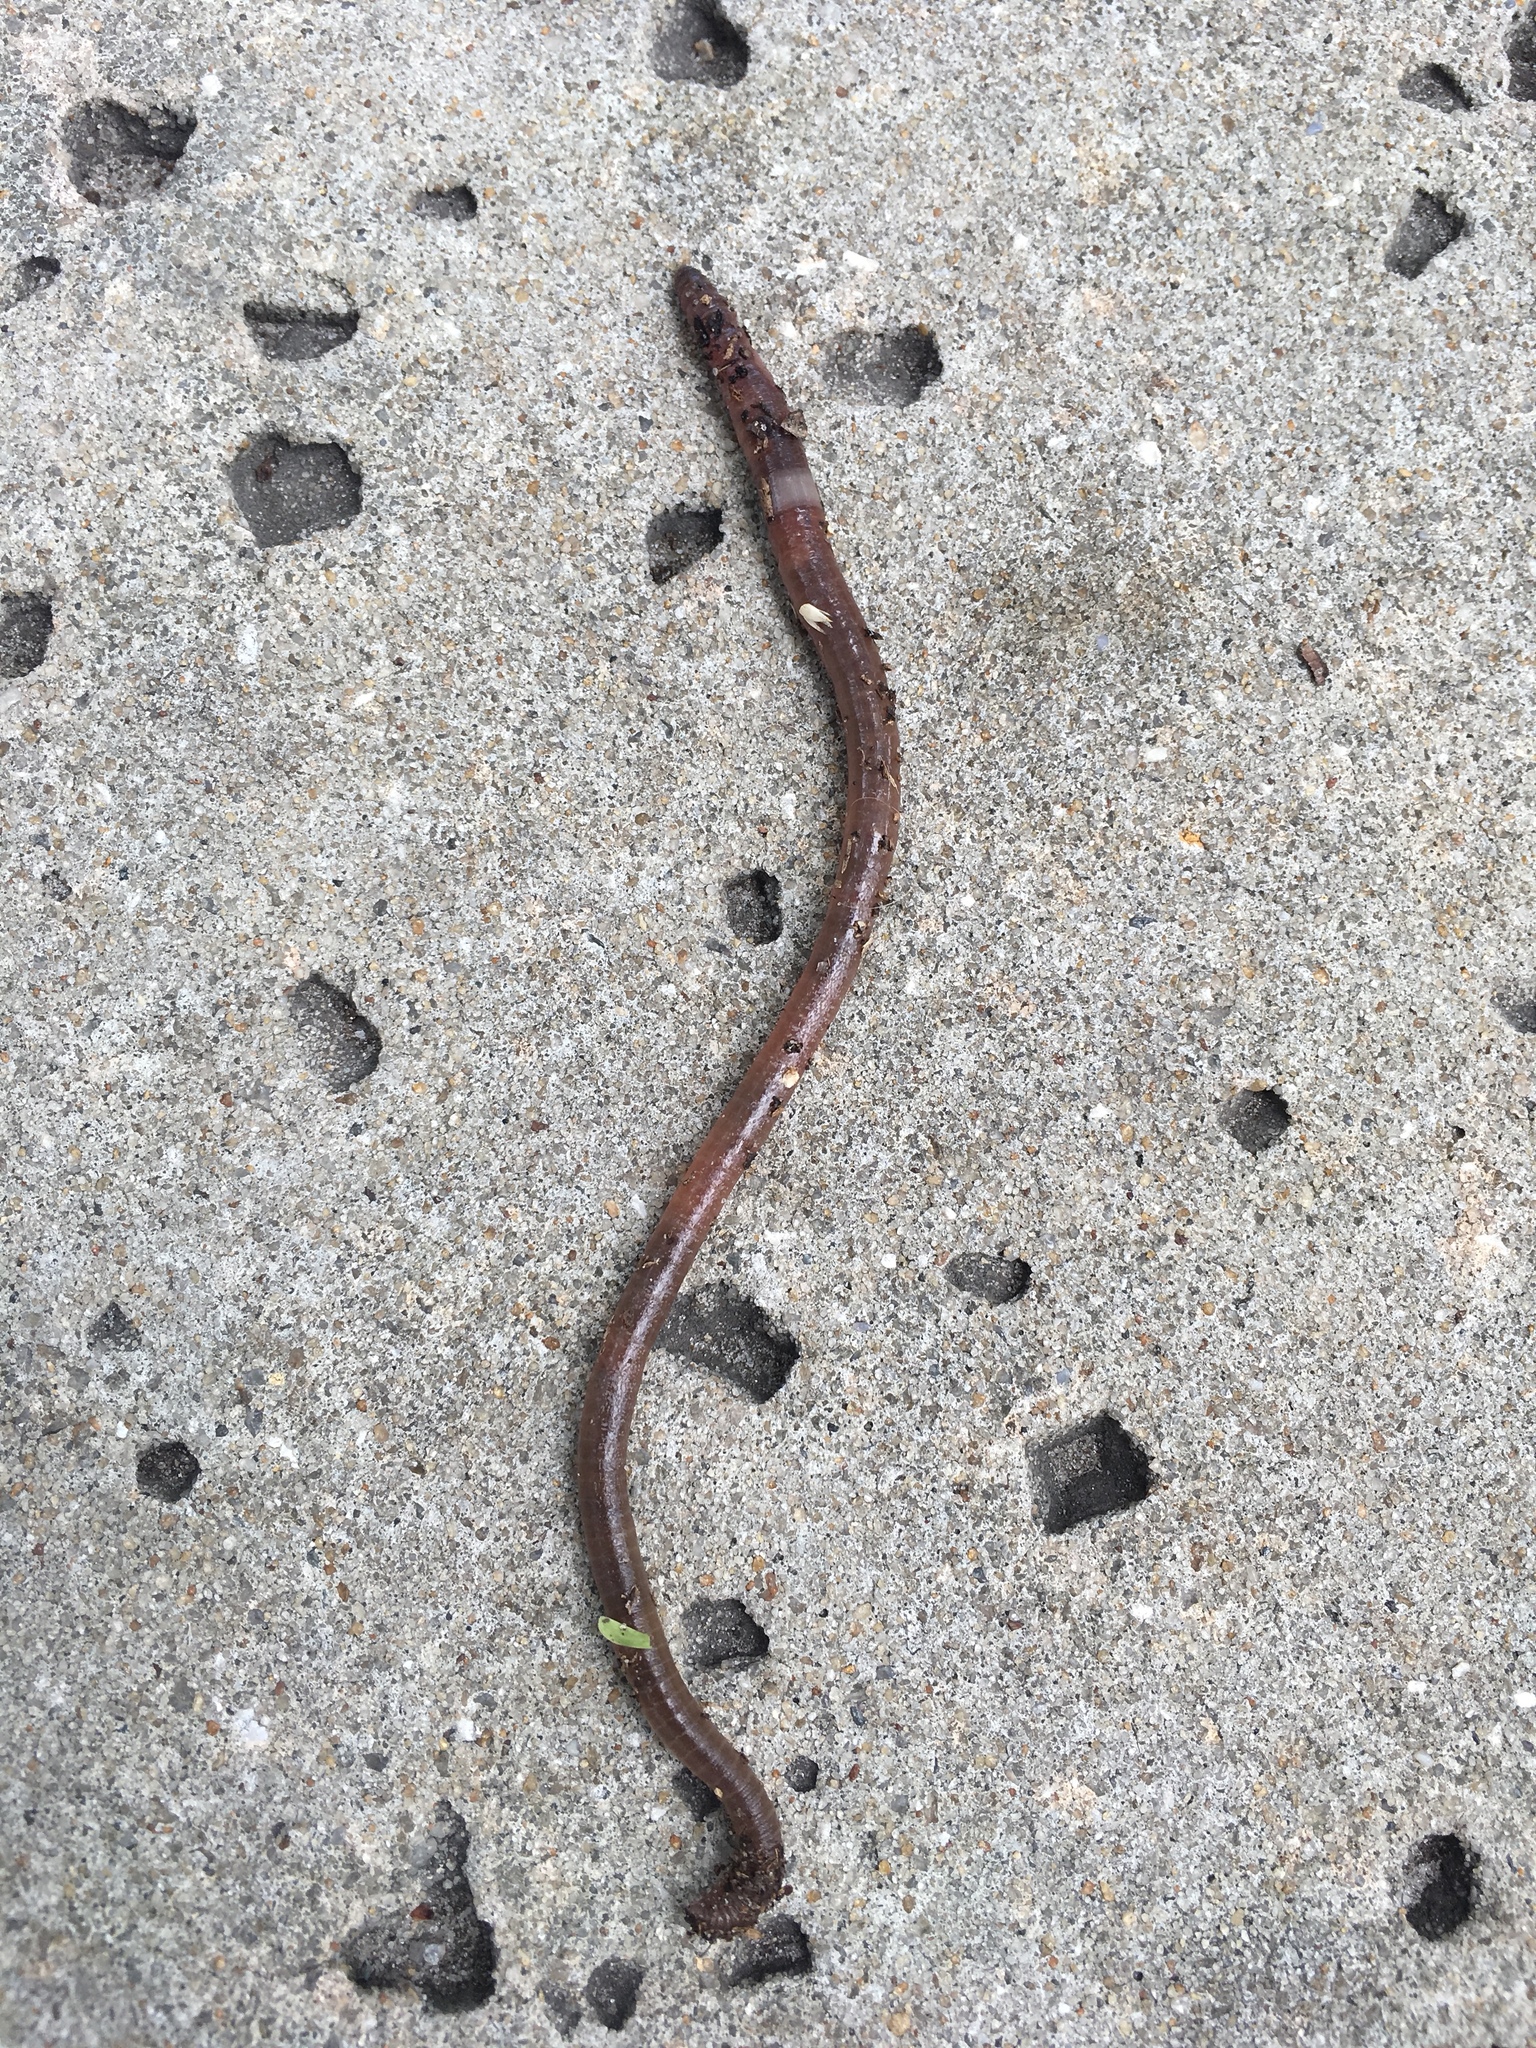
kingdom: Animalia
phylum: Annelida
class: Clitellata
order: Crassiclitellata
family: Lumbricidae
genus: Lumbricus
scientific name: Lumbricus terrestris
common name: Common earthworm
